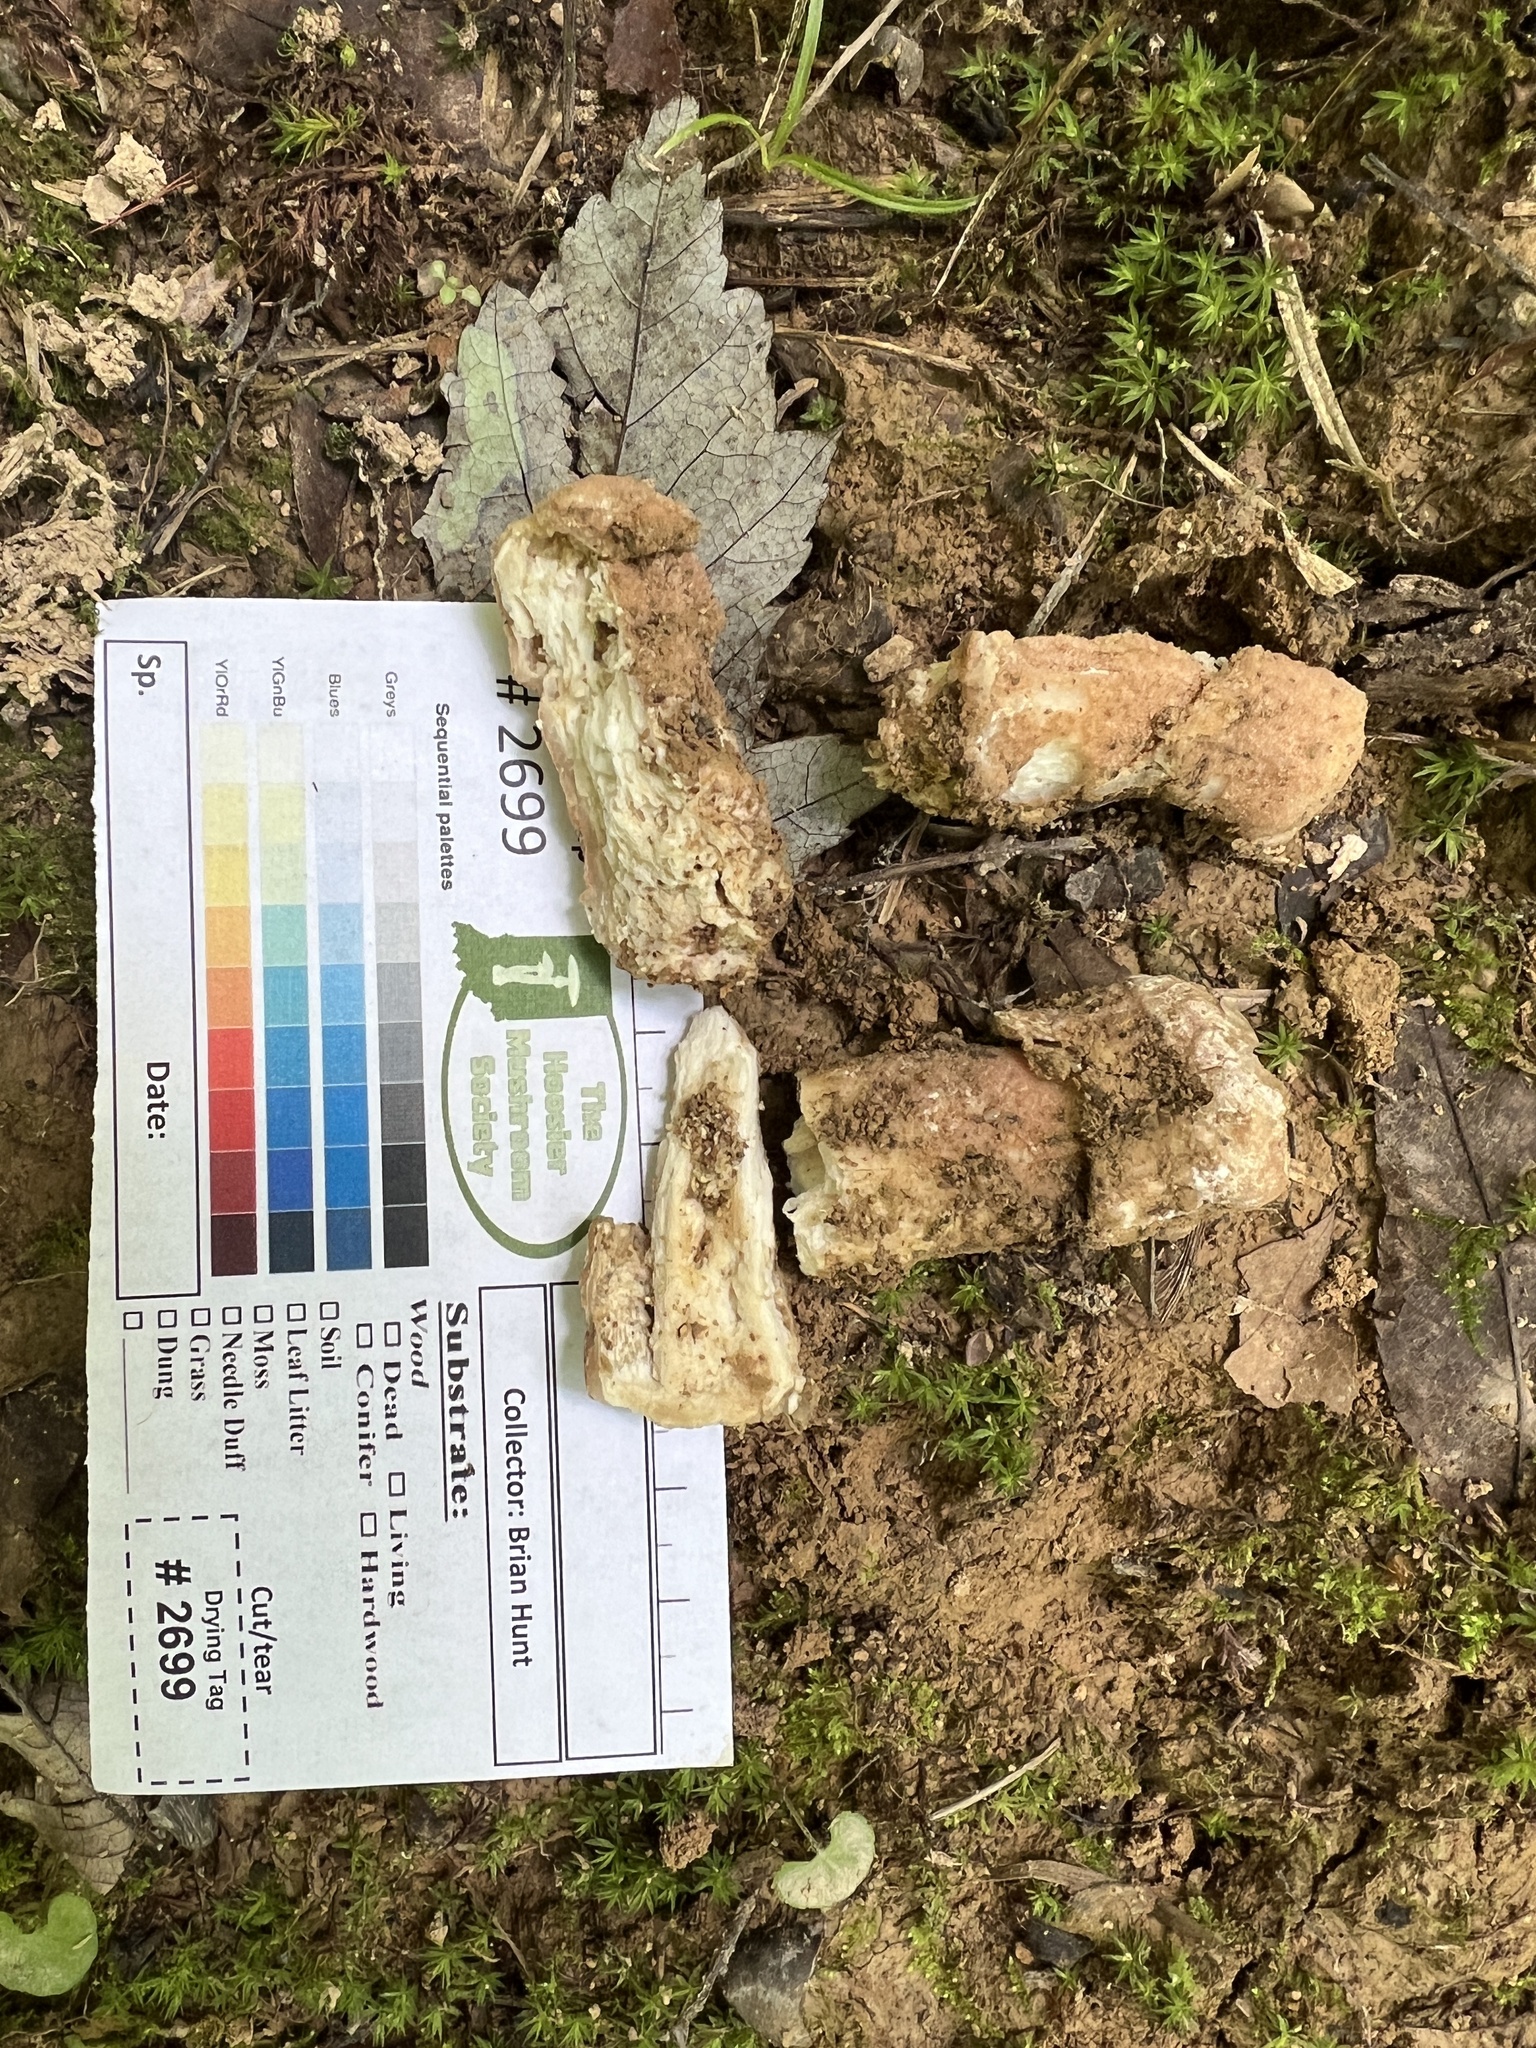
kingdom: Fungi
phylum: Ascomycota
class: Sordariomycetes
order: Hypocreales
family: Hypocreaceae
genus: Hypomyces
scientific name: Hypomyces hyalinus
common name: Amanita mold
